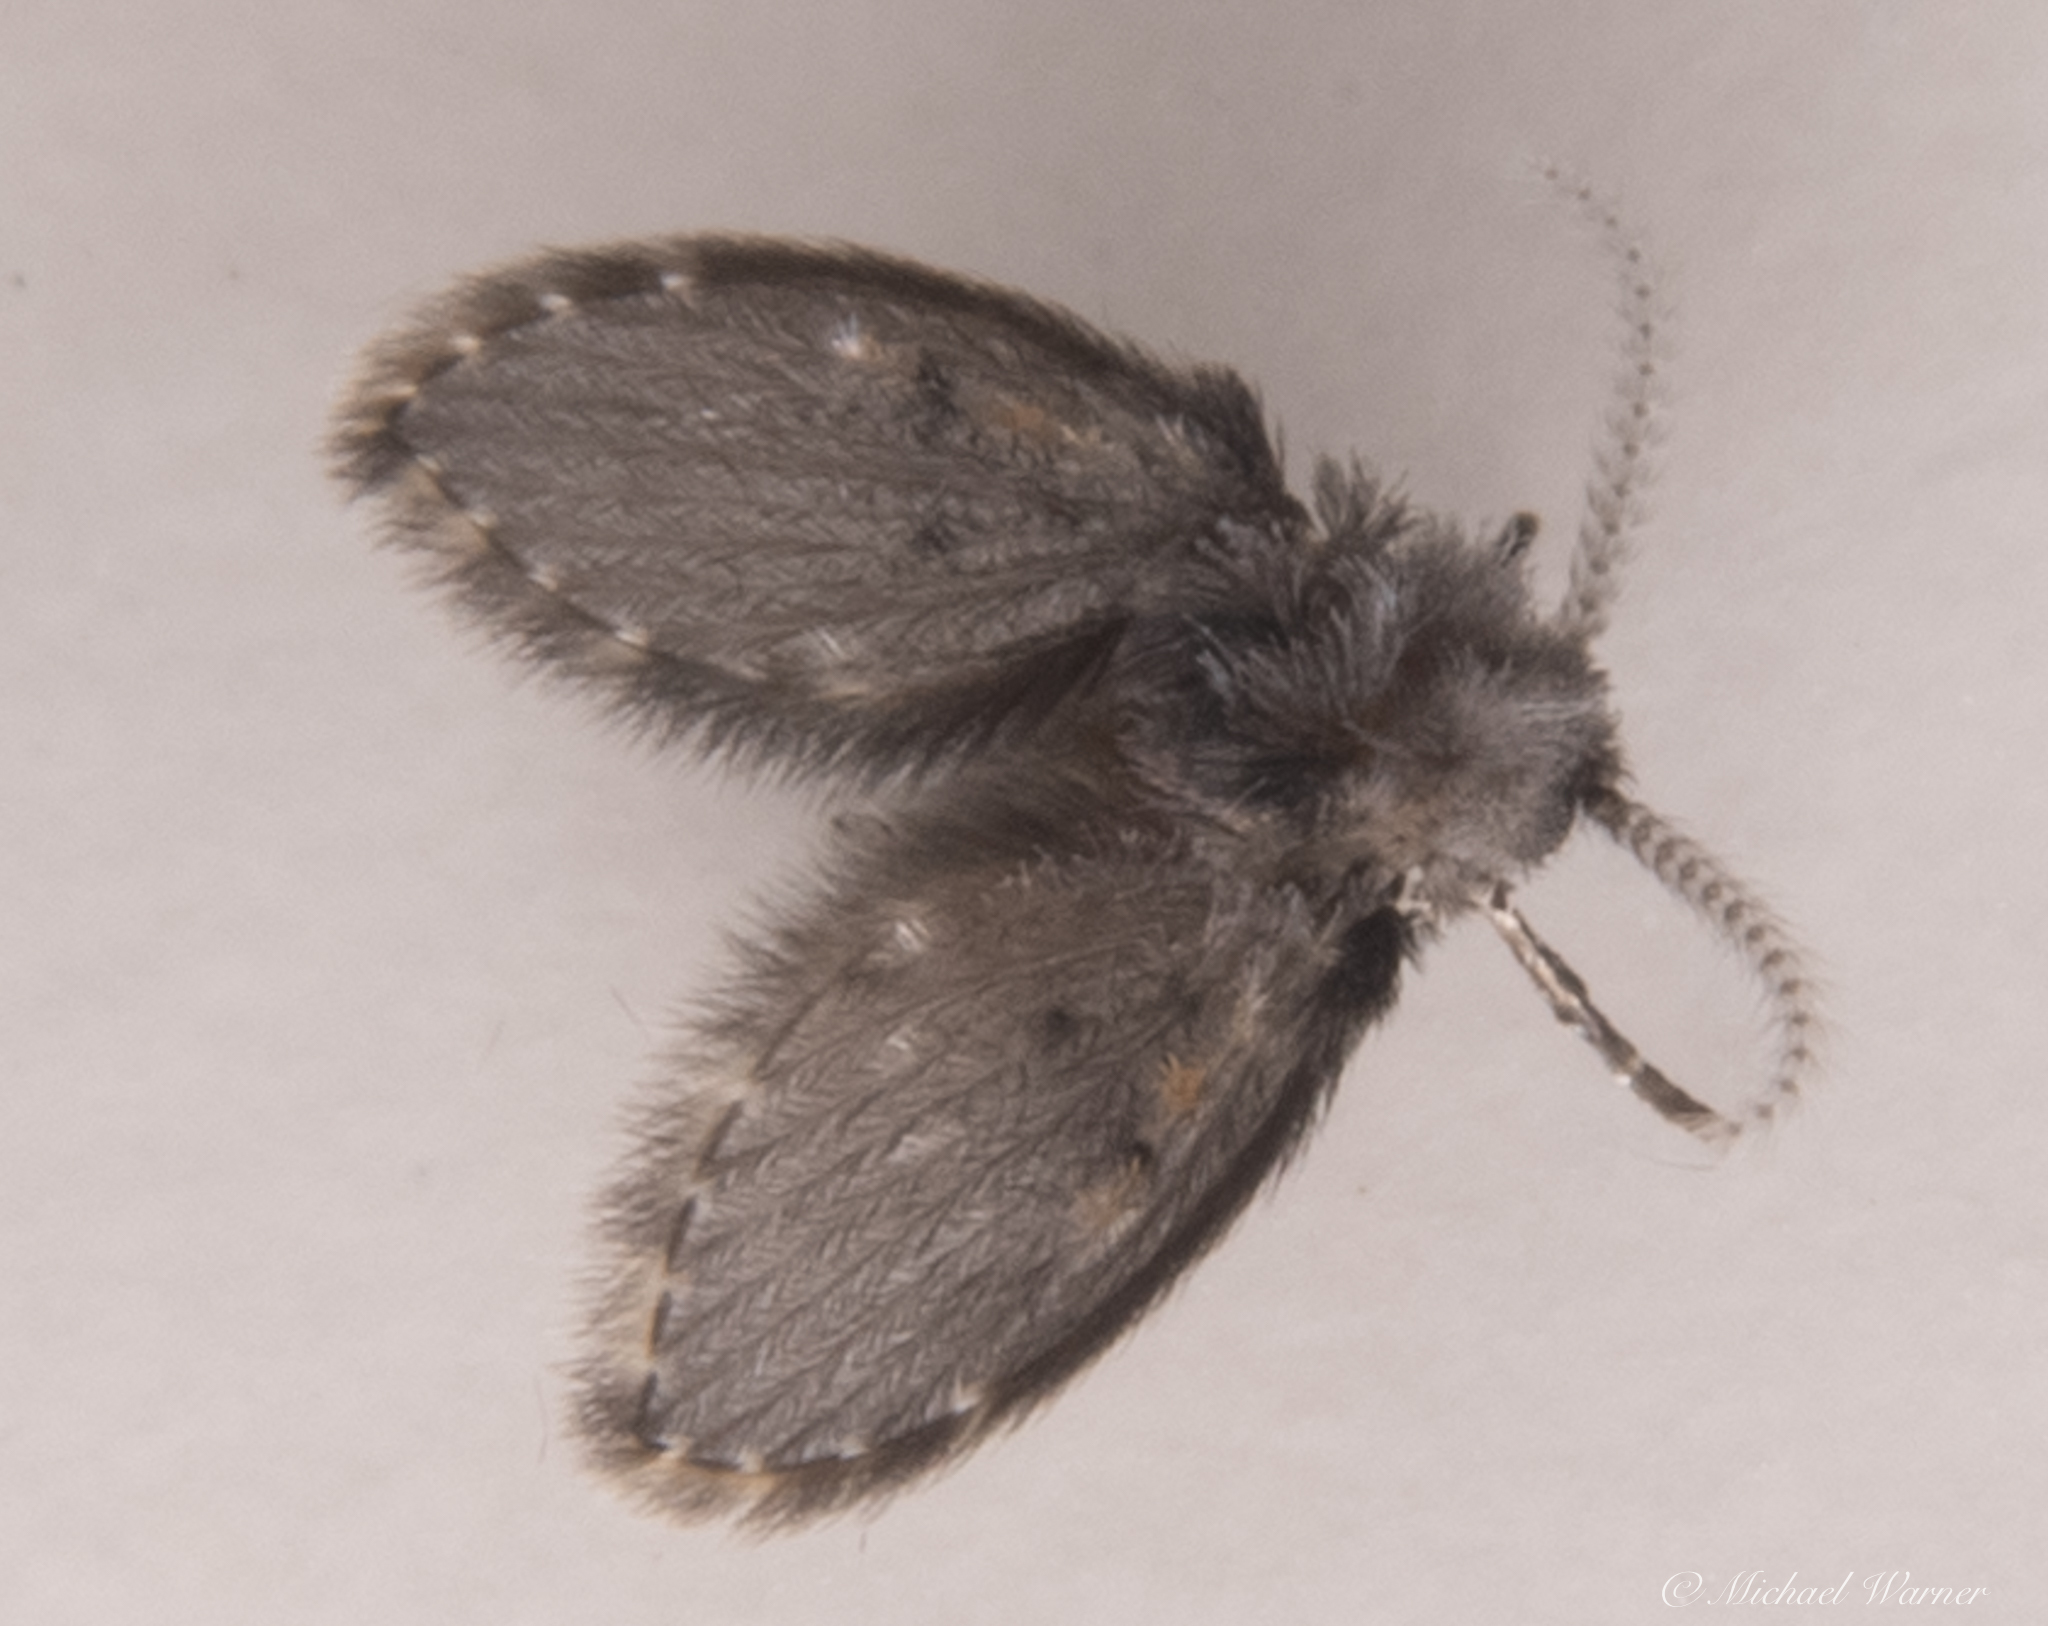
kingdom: Animalia
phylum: Arthropoda
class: Insecta
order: Diptera
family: Psychodidae
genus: Clogmia
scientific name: Clogmia albipunctatus
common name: White-spotted moth fly
